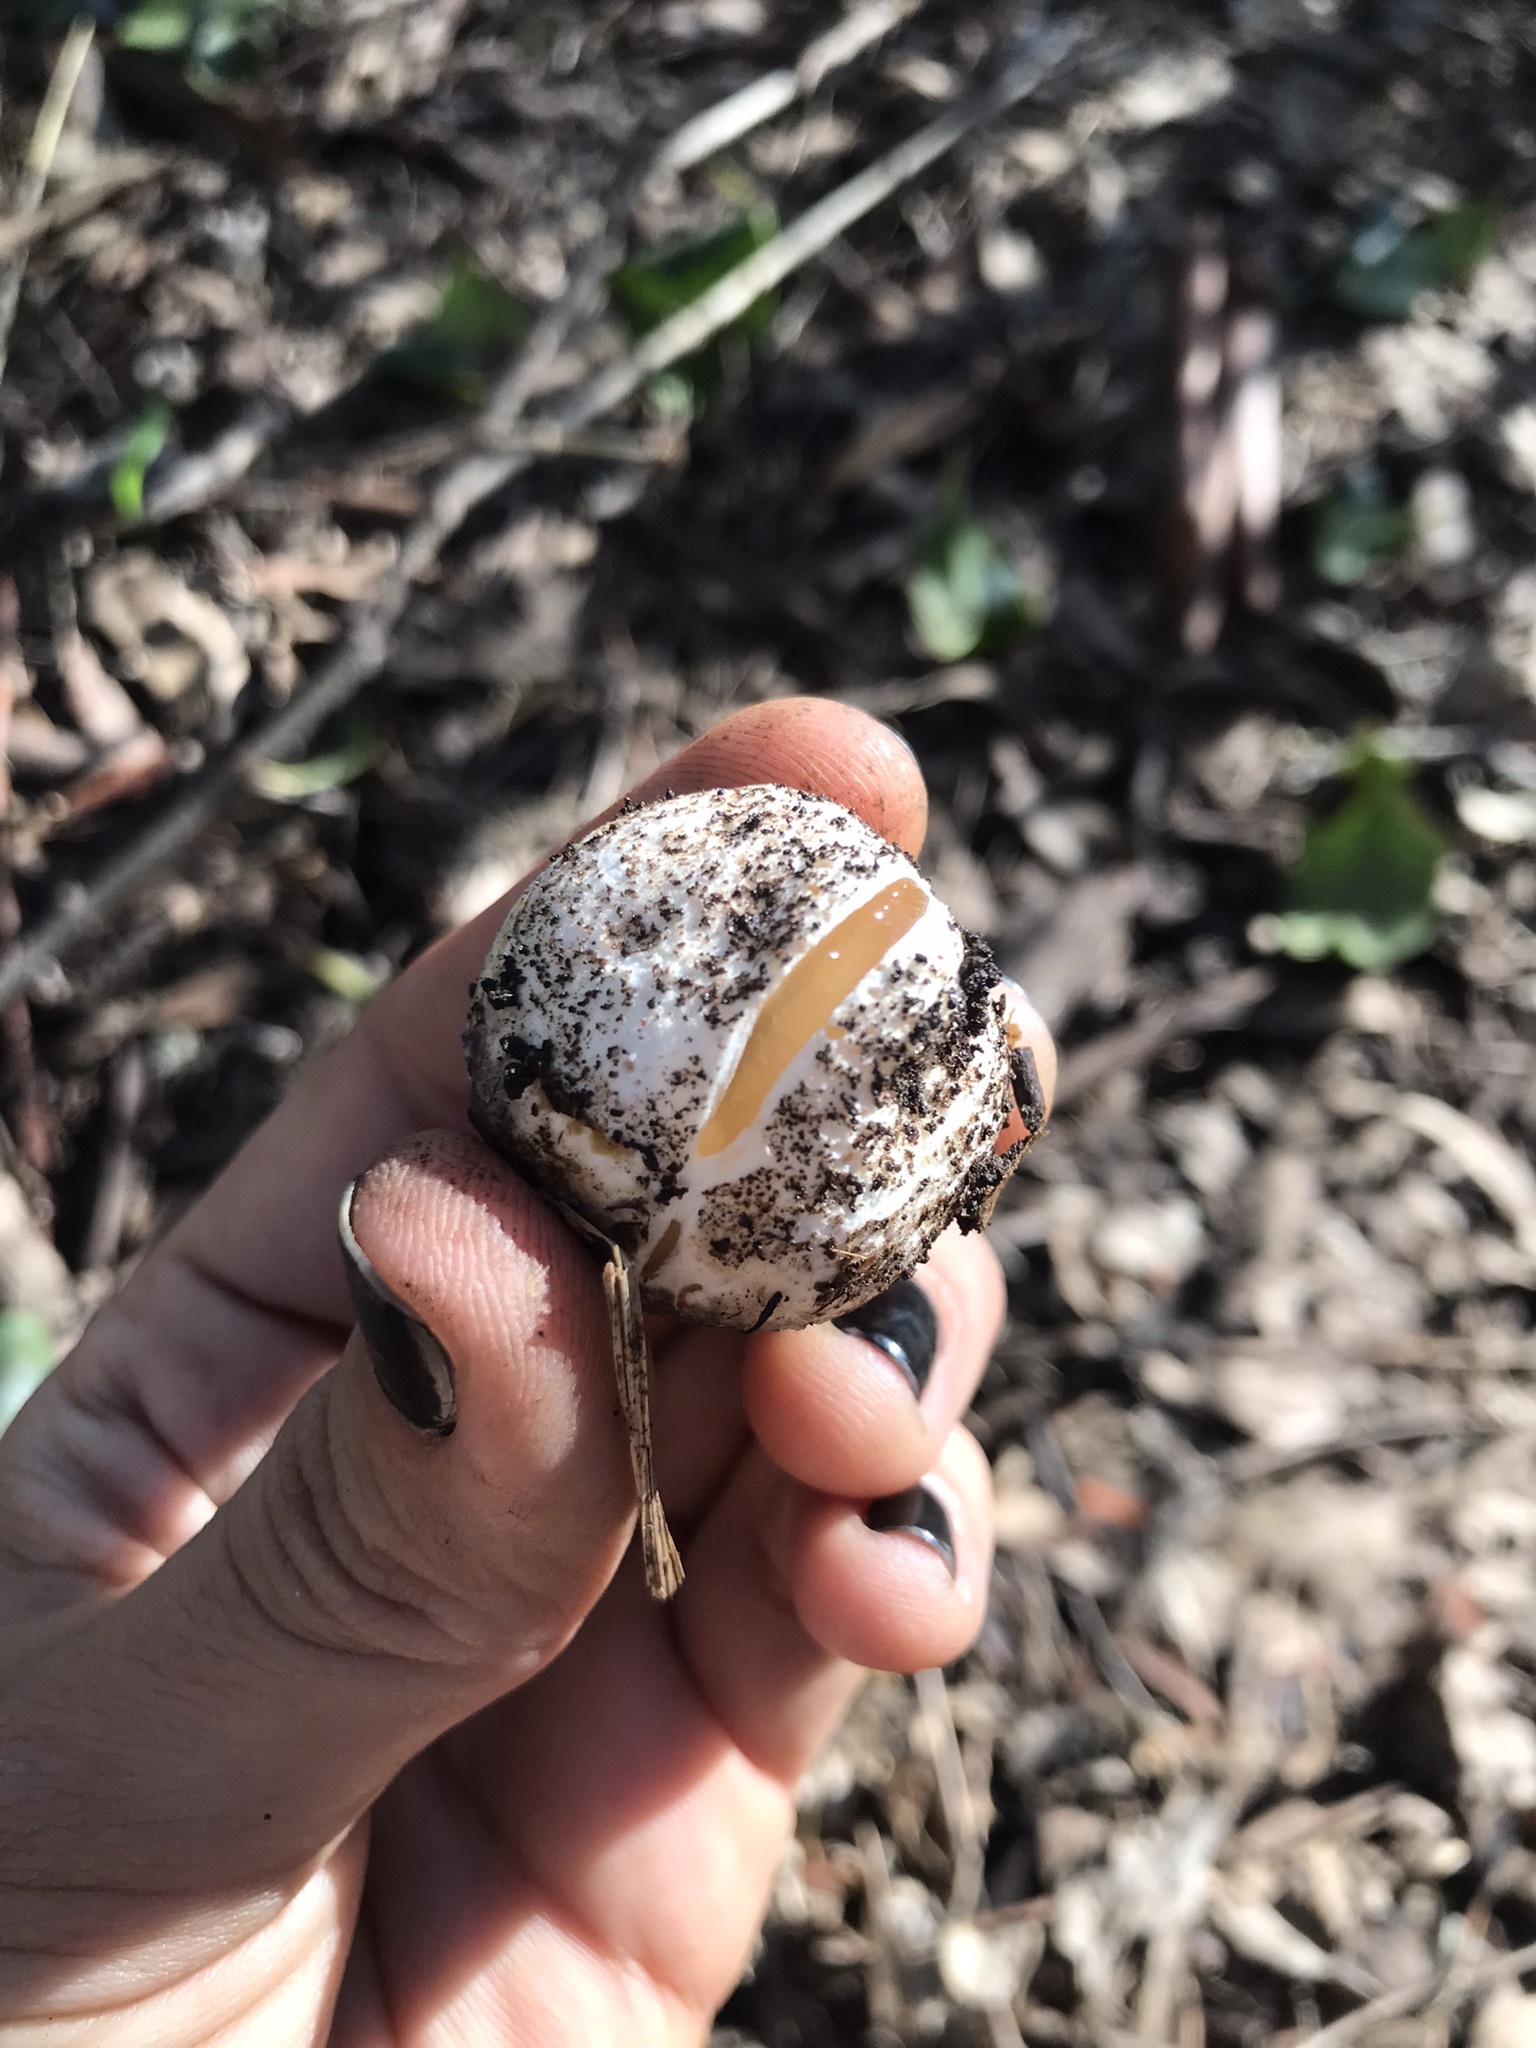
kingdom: Fungi
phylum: Basidiomycota
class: Agaricomycetes
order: Phallales
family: Phallaceae
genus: Blumenavia
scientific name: Blumenavia rhacodes
